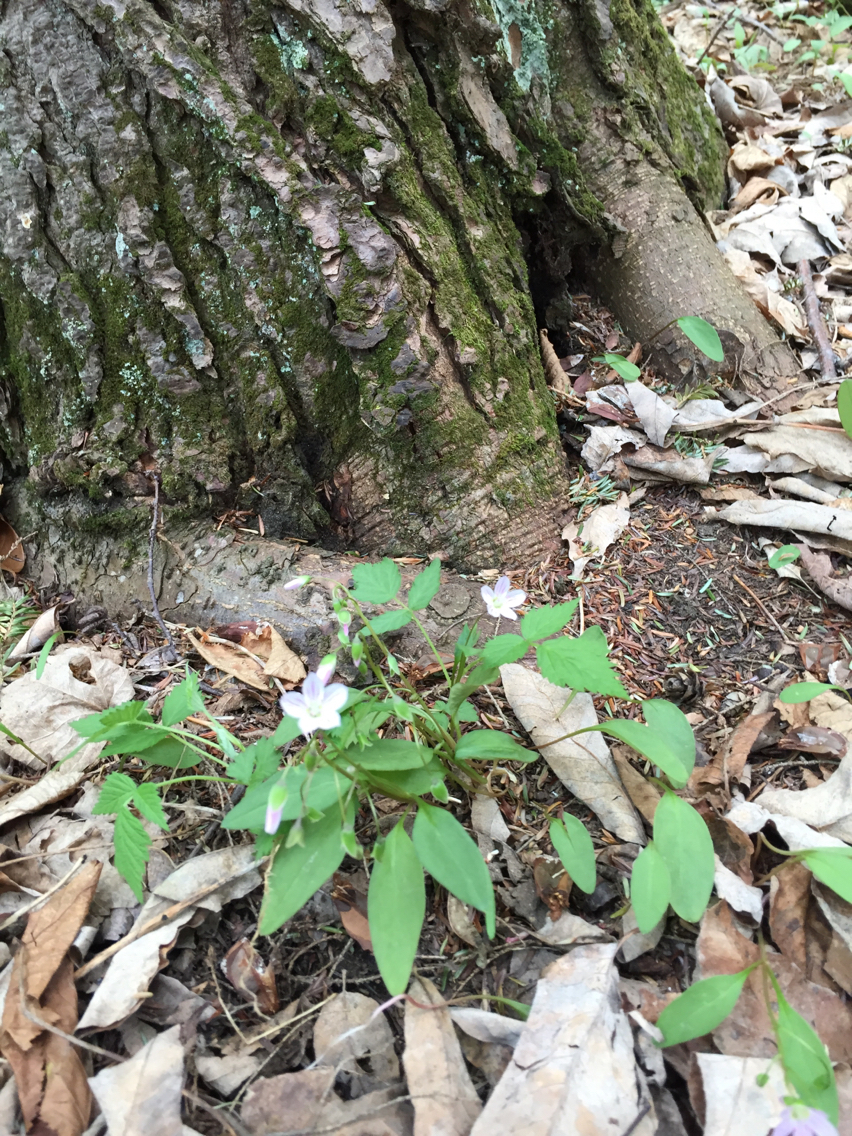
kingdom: Plantae
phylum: Tracheophyta
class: Magnoliopsida
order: Caryophyllales
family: Montiaceae
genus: Claytonia
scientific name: Claytonia caroliniana
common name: Carolina spring beauty
